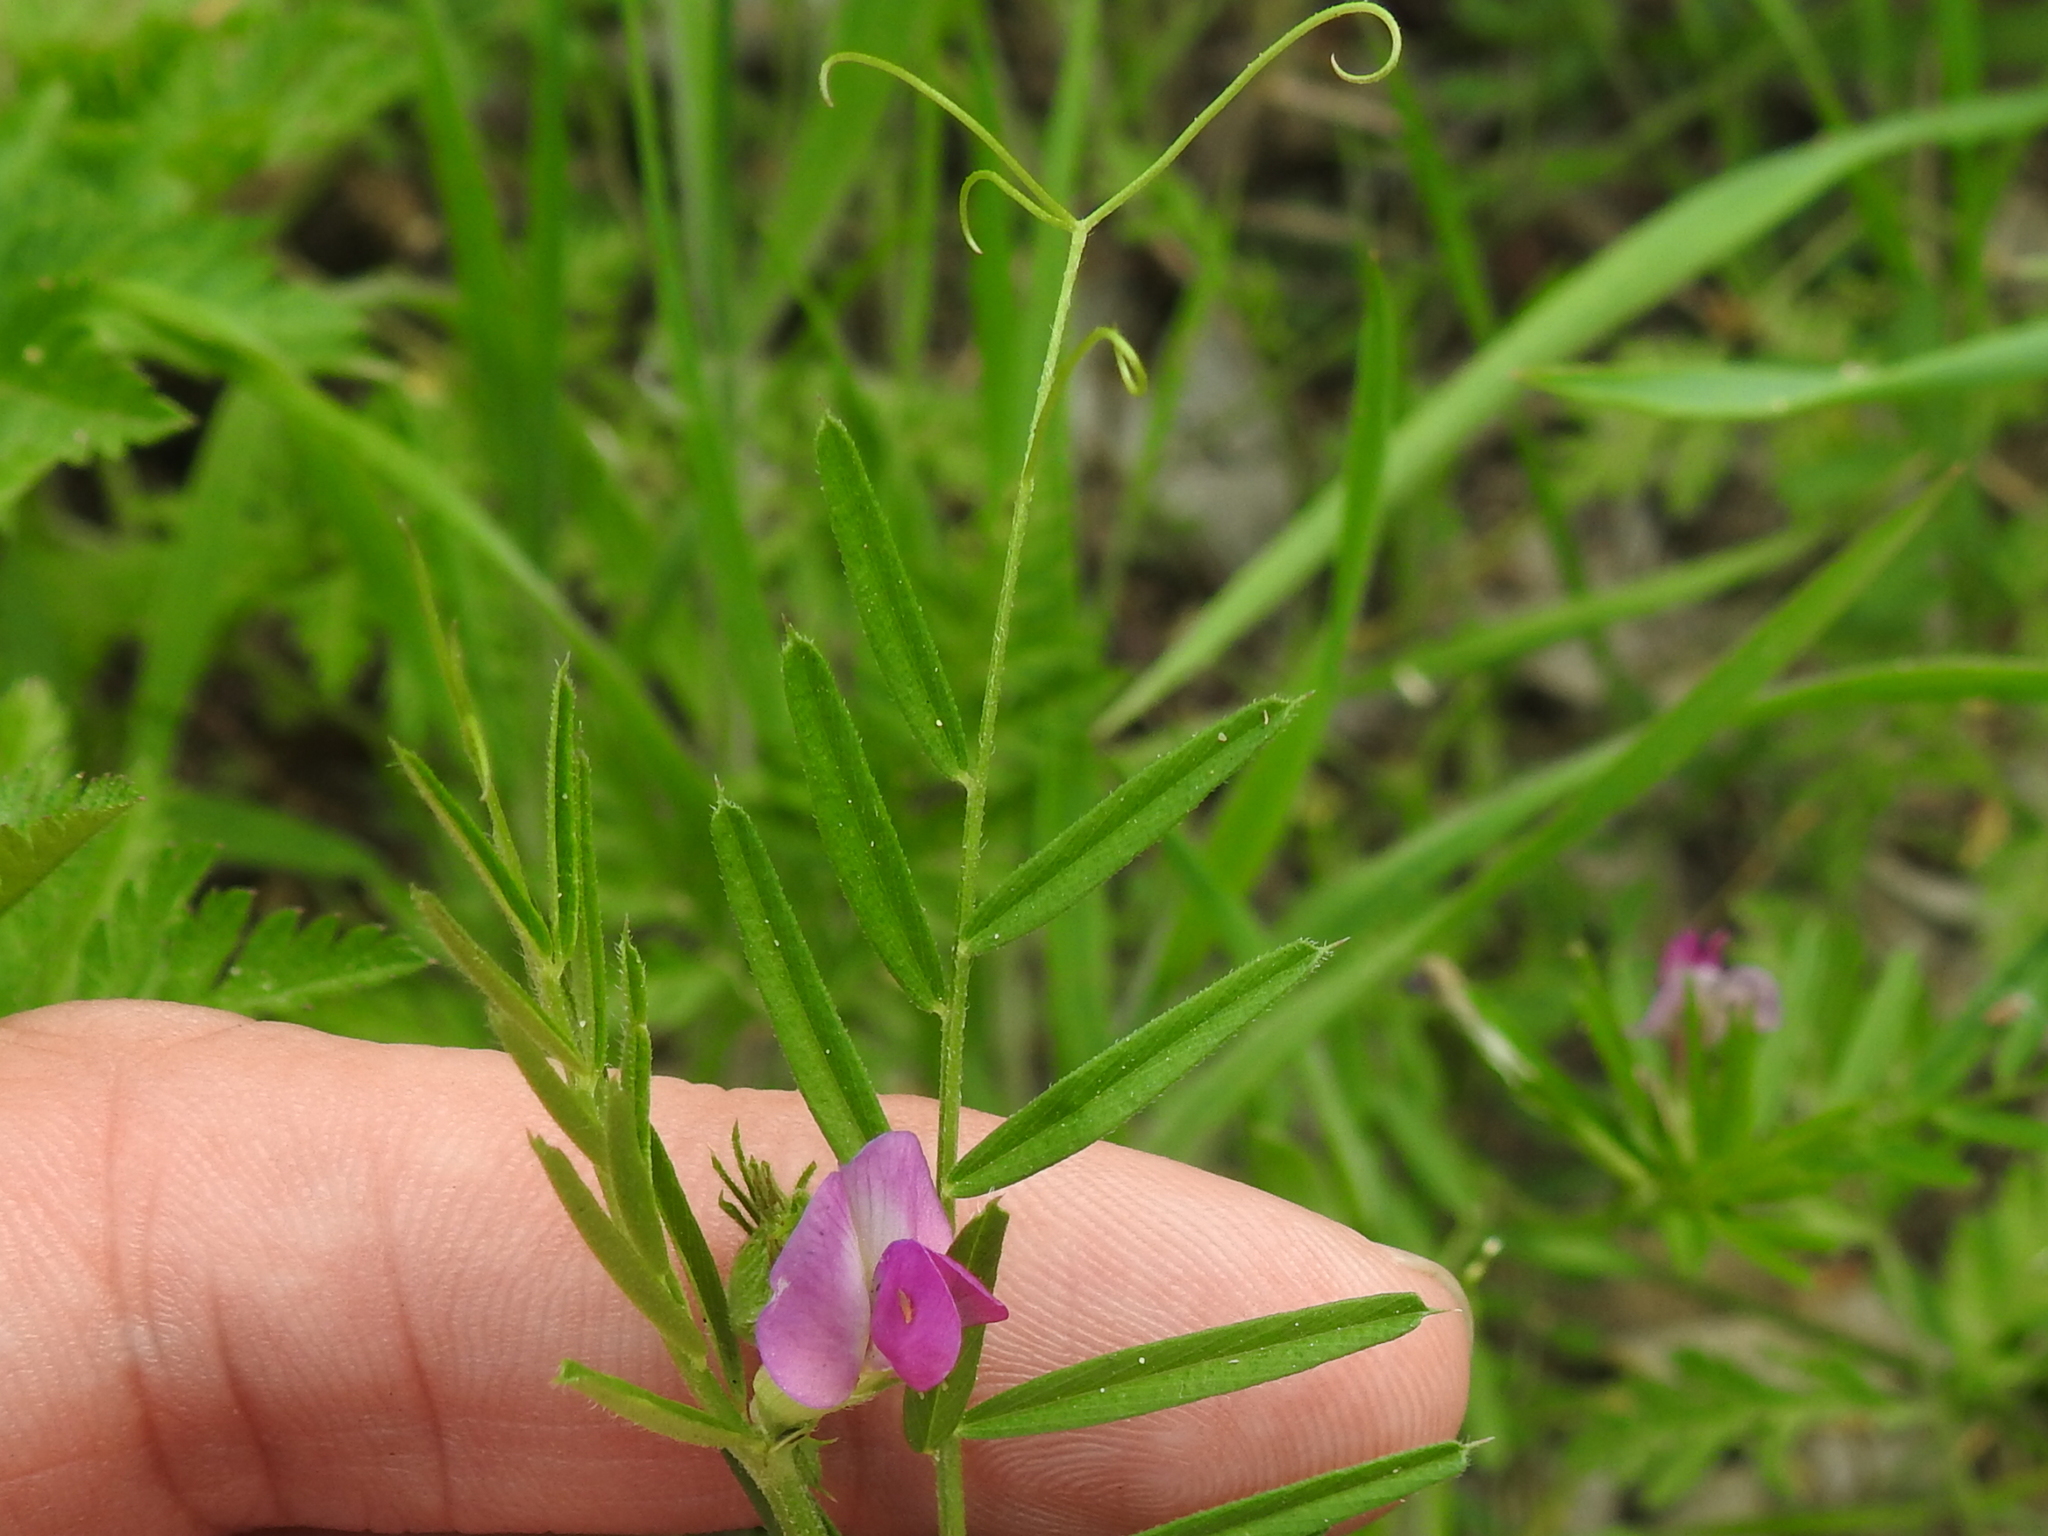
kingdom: Plantae
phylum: Tracheophyta
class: Magnoliopsida
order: Fabales
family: Fabaceae
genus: Vicia
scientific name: Vicia sativa
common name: Garden vetch
